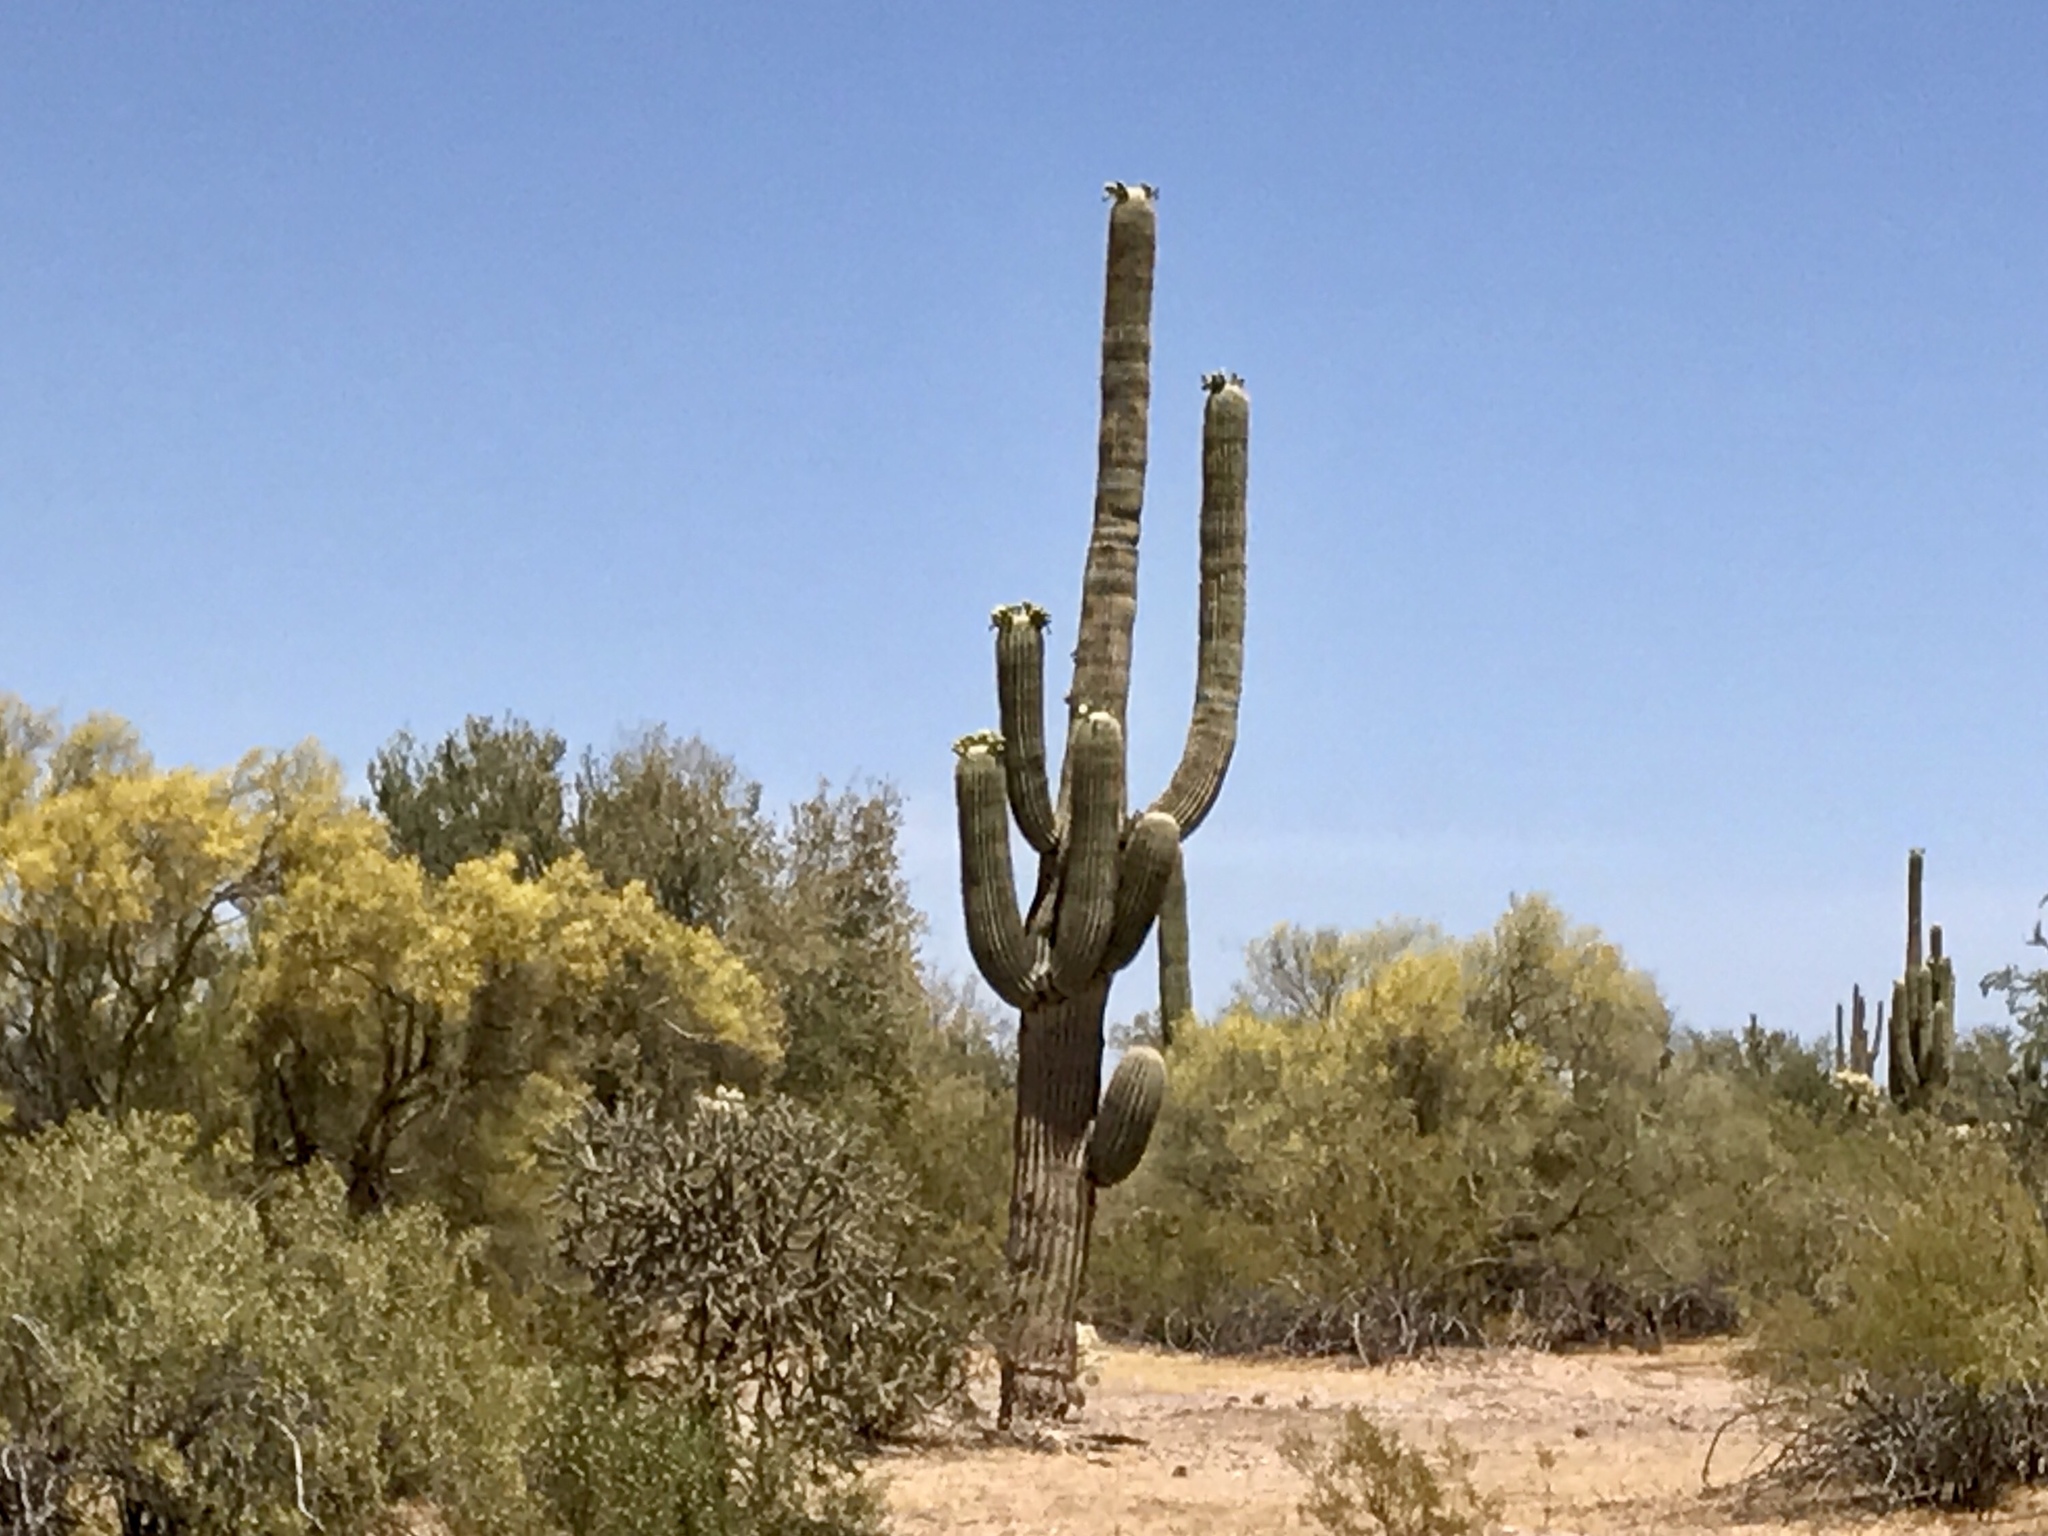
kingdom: Plantae
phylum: Tracheophyta
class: Magnoliopsida
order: Caryophyllales
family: Cactaceae
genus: Carnegiea
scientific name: Carnegiea gigantea
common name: Saguaro
